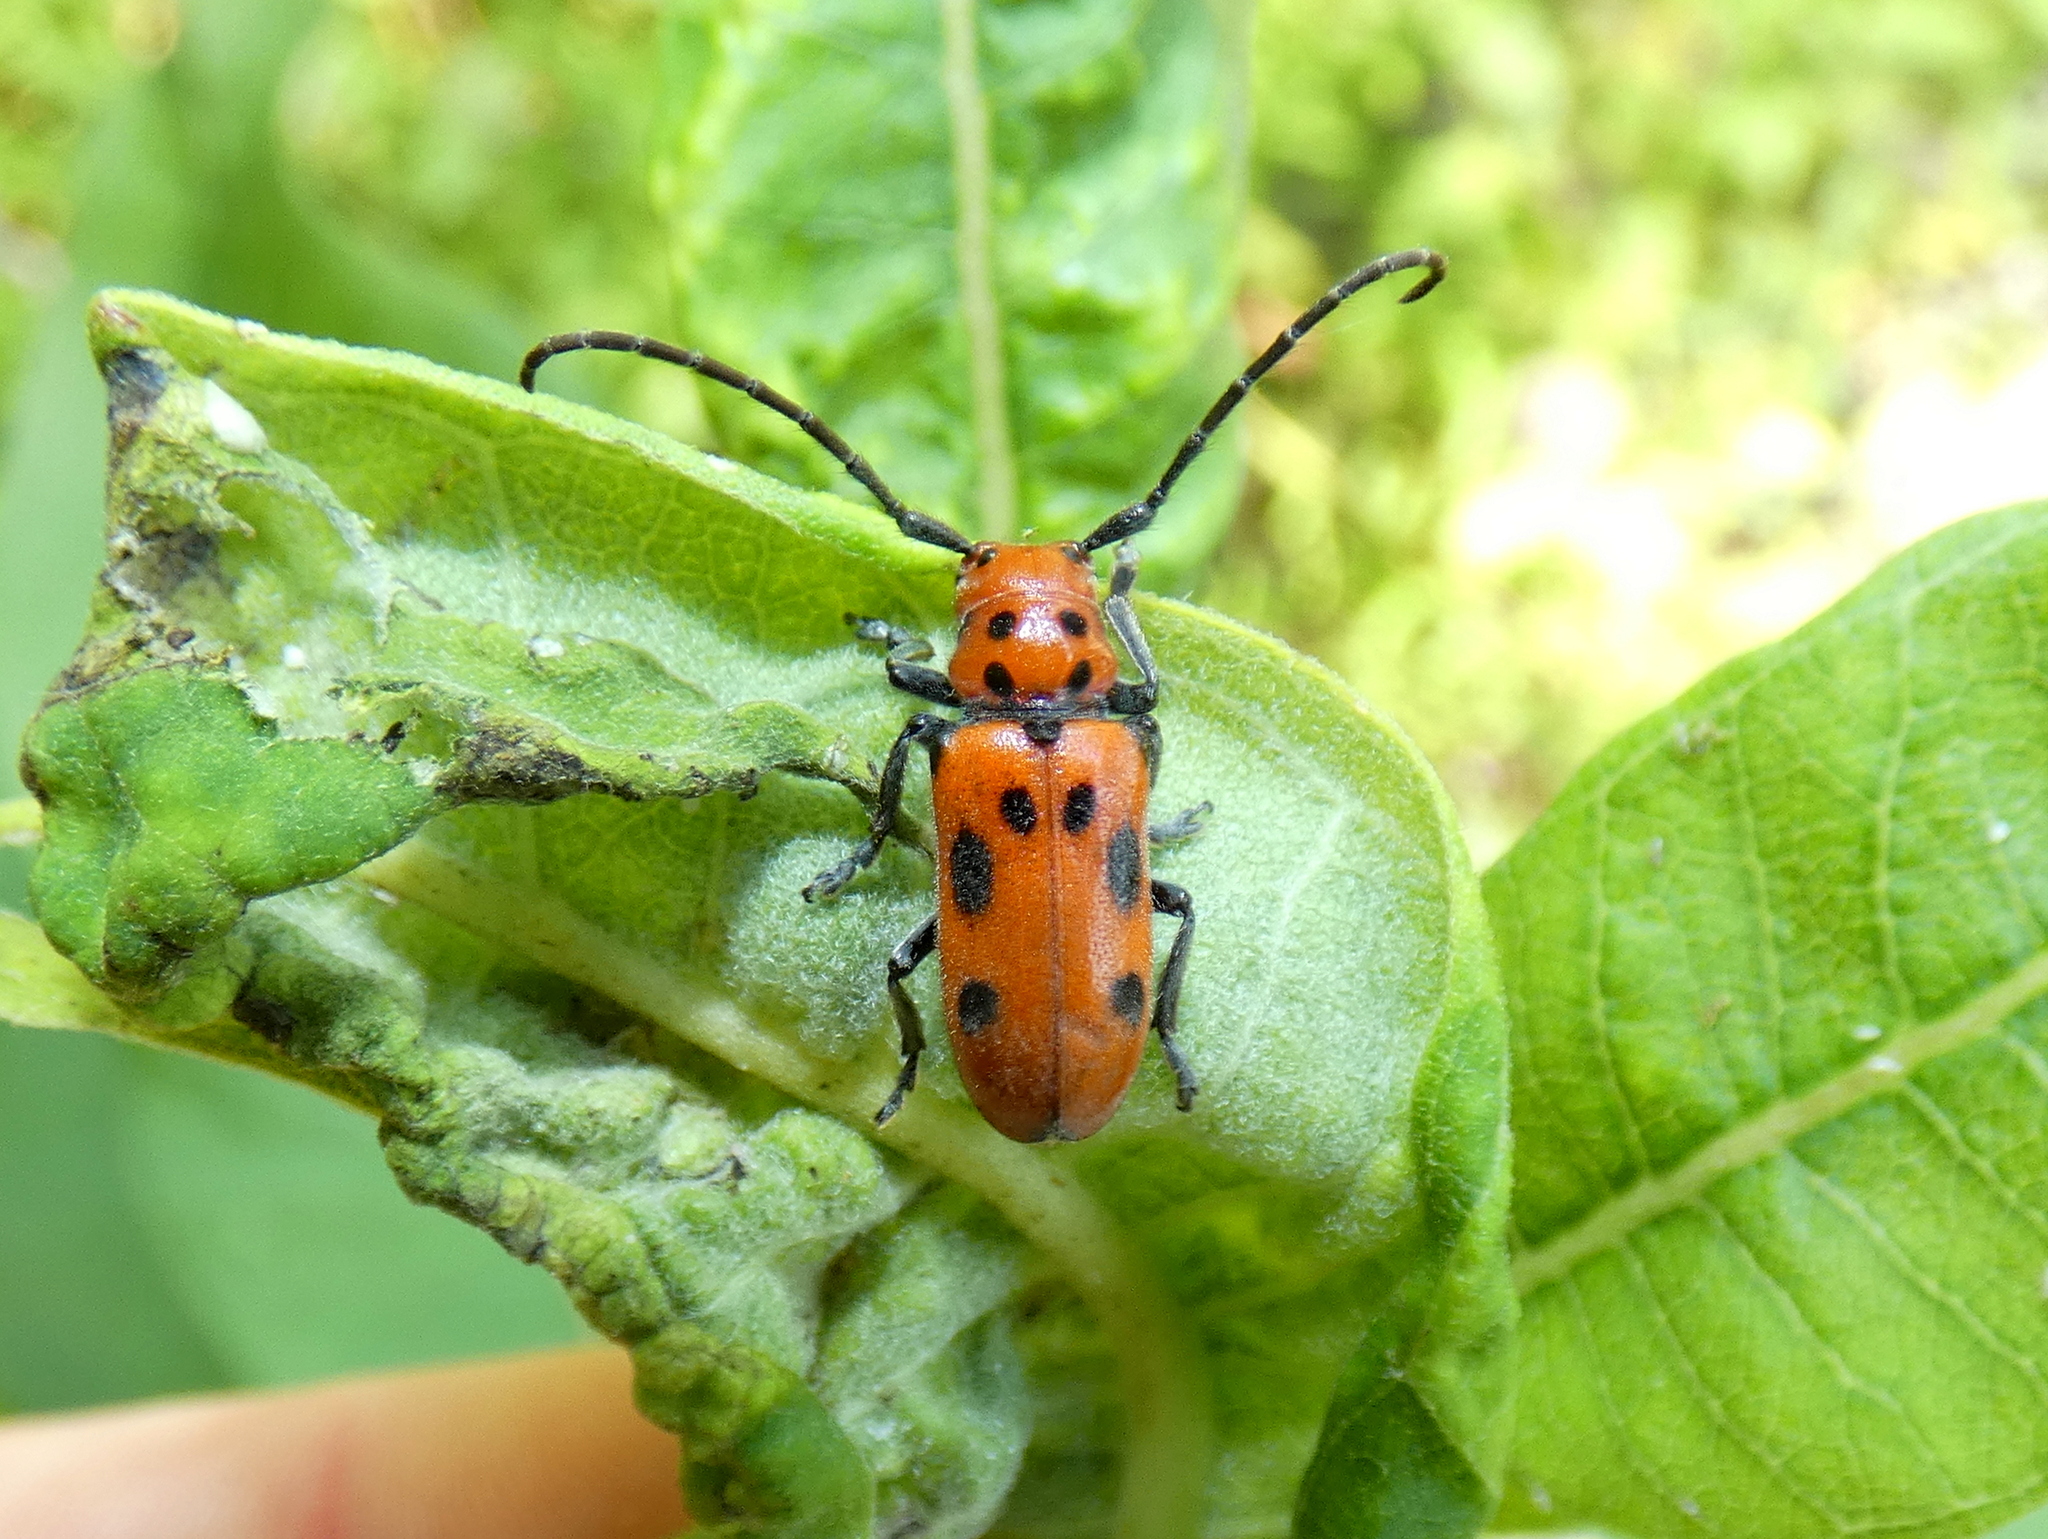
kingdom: Animalia
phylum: Arthropoda
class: Insecta
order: Coleoptera
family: Cerambycidae
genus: Tetraopes
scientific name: Tetraopes tetrophthalmus
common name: Red milkweed beetle
